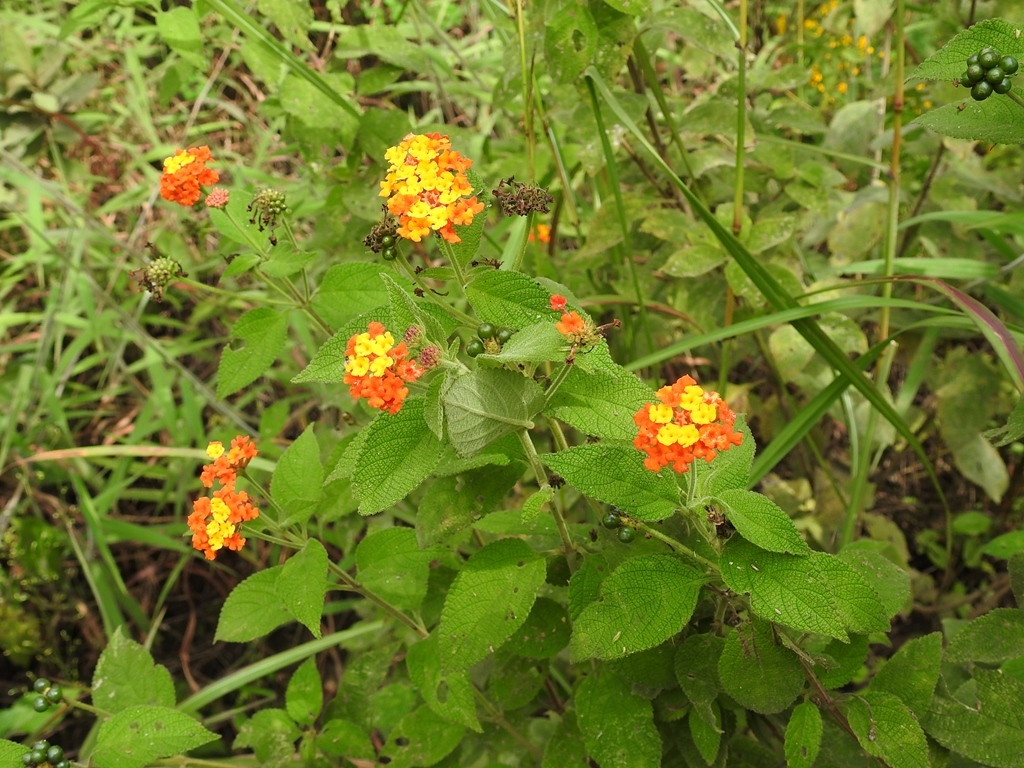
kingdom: Plantae
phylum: Tracheophyta
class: Magnoliopsida
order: Lamiales
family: Verbenaceae
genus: Lantana
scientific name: Lantana camara
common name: Lantana
